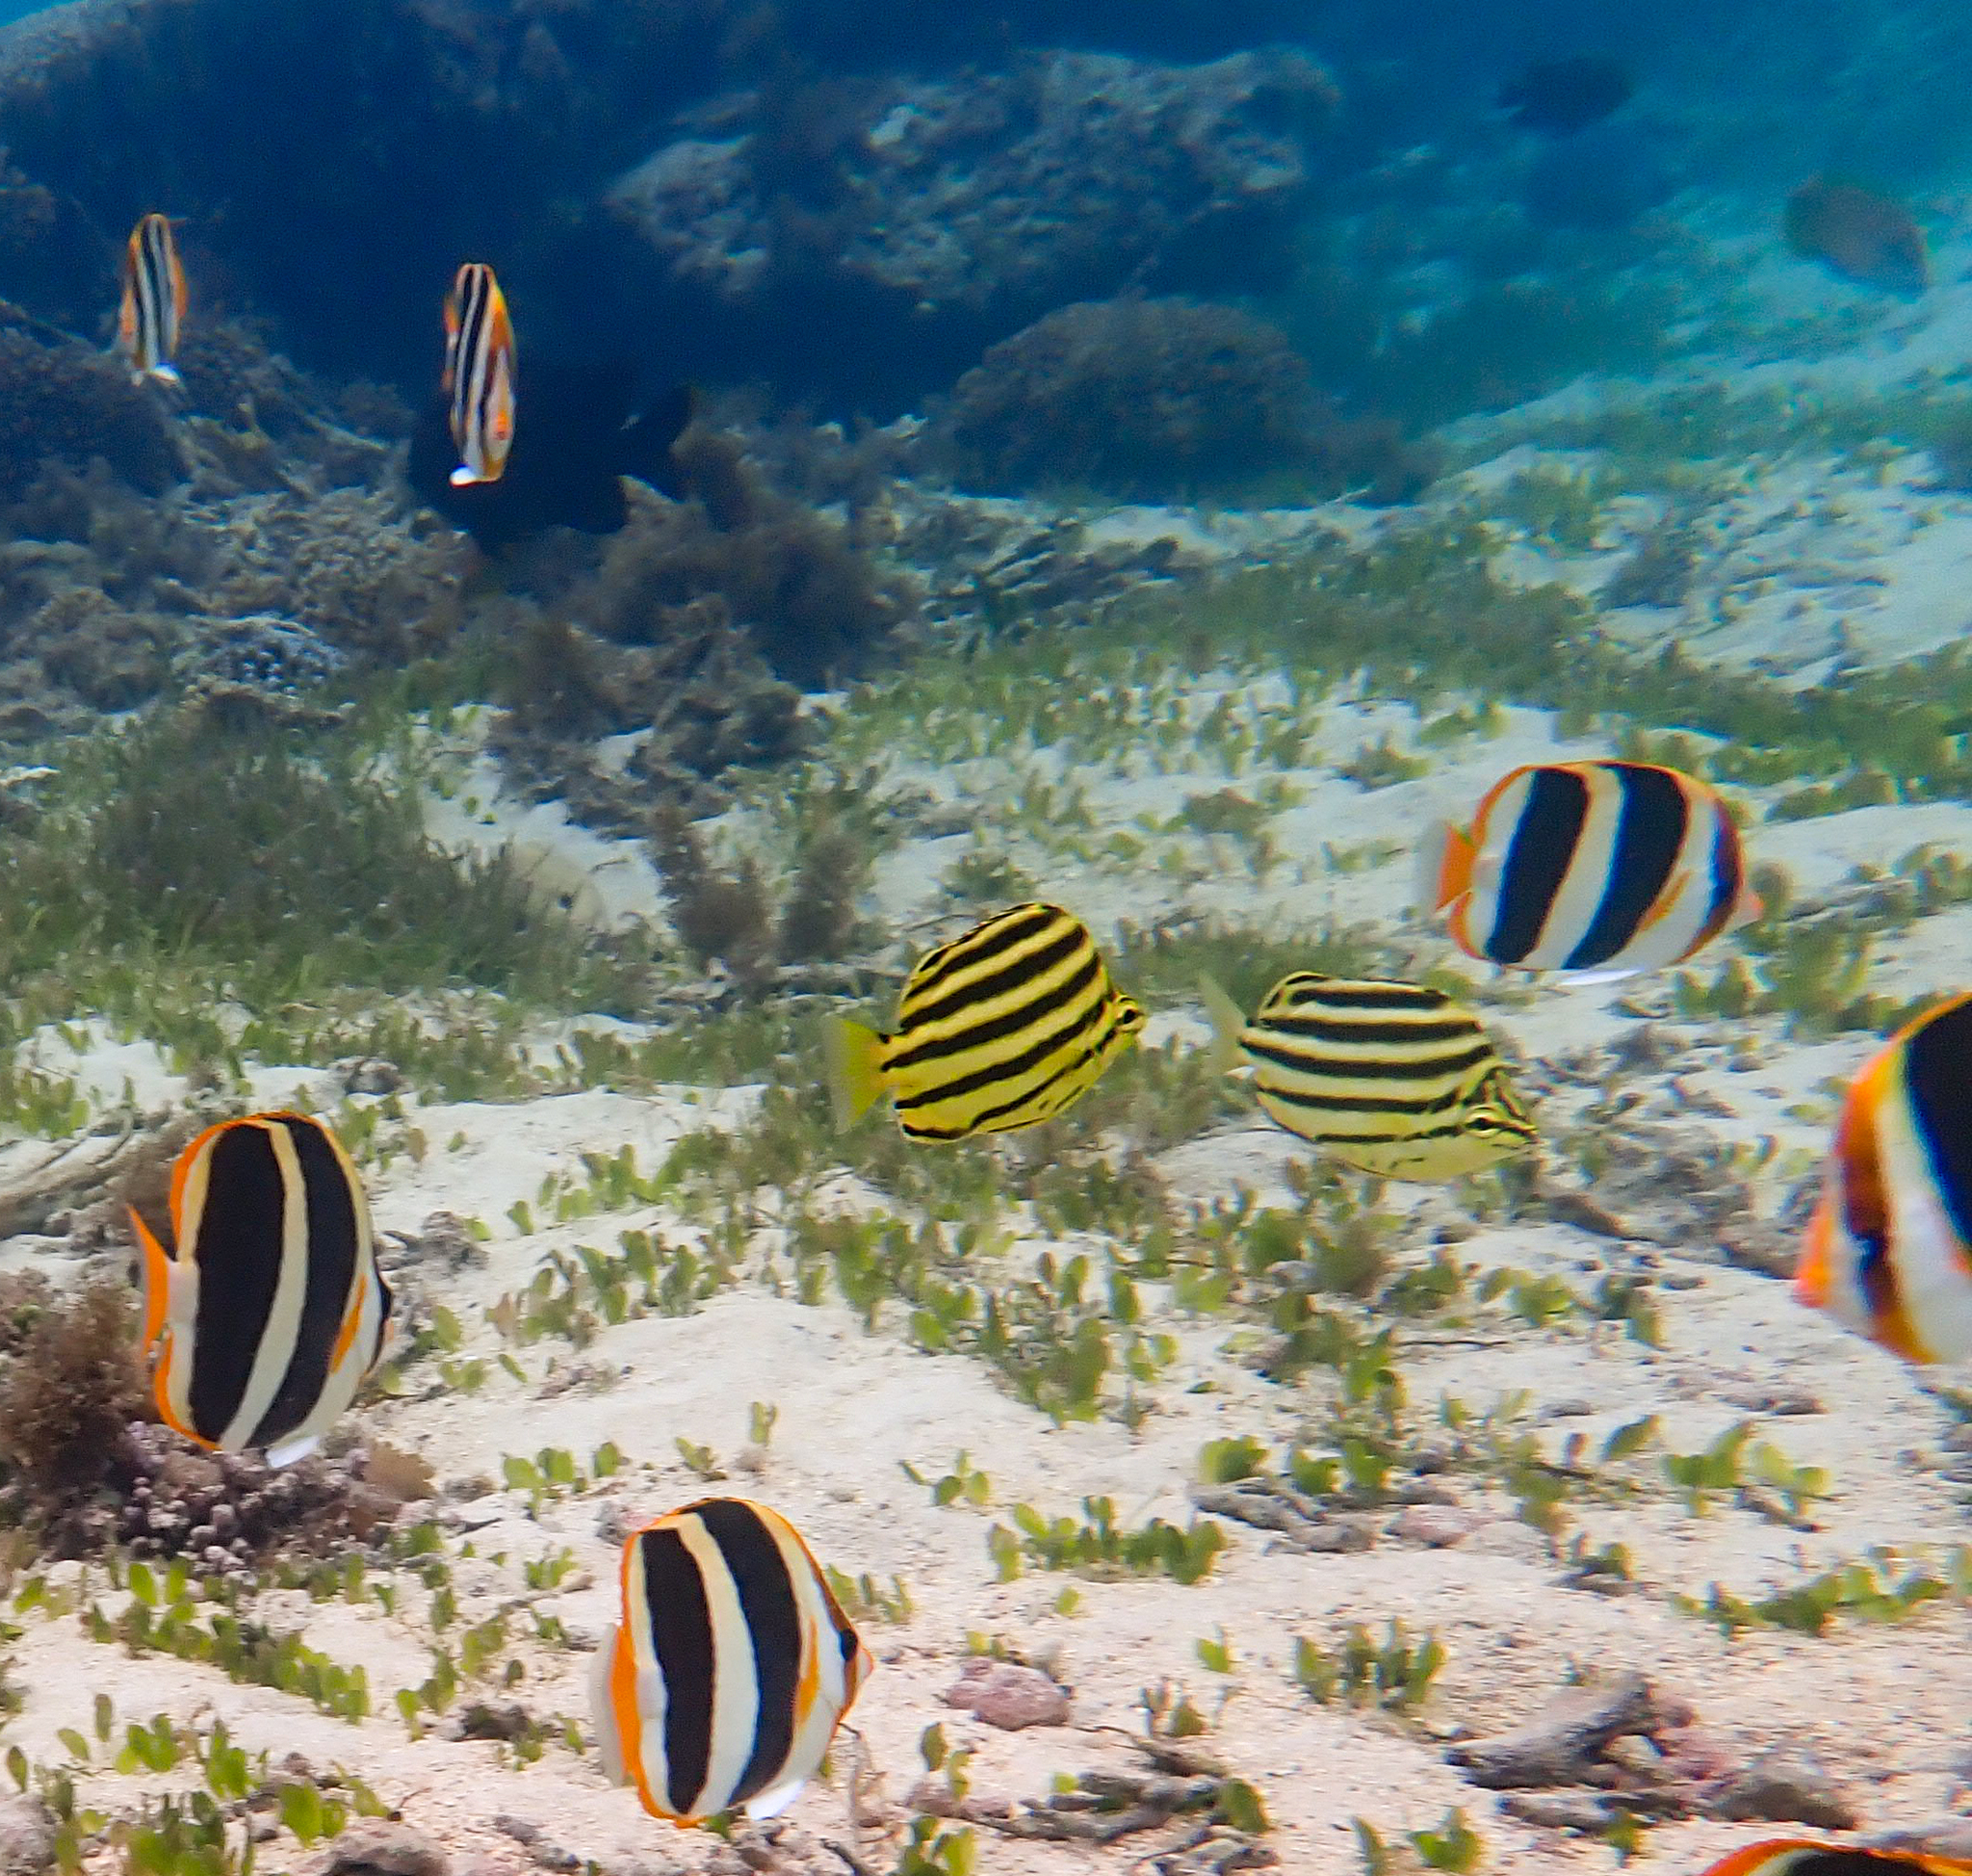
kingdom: Animalia
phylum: Chordata
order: Perciformes
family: Kyphosidae
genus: Microcanthus
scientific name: Microcanthus joyceae
